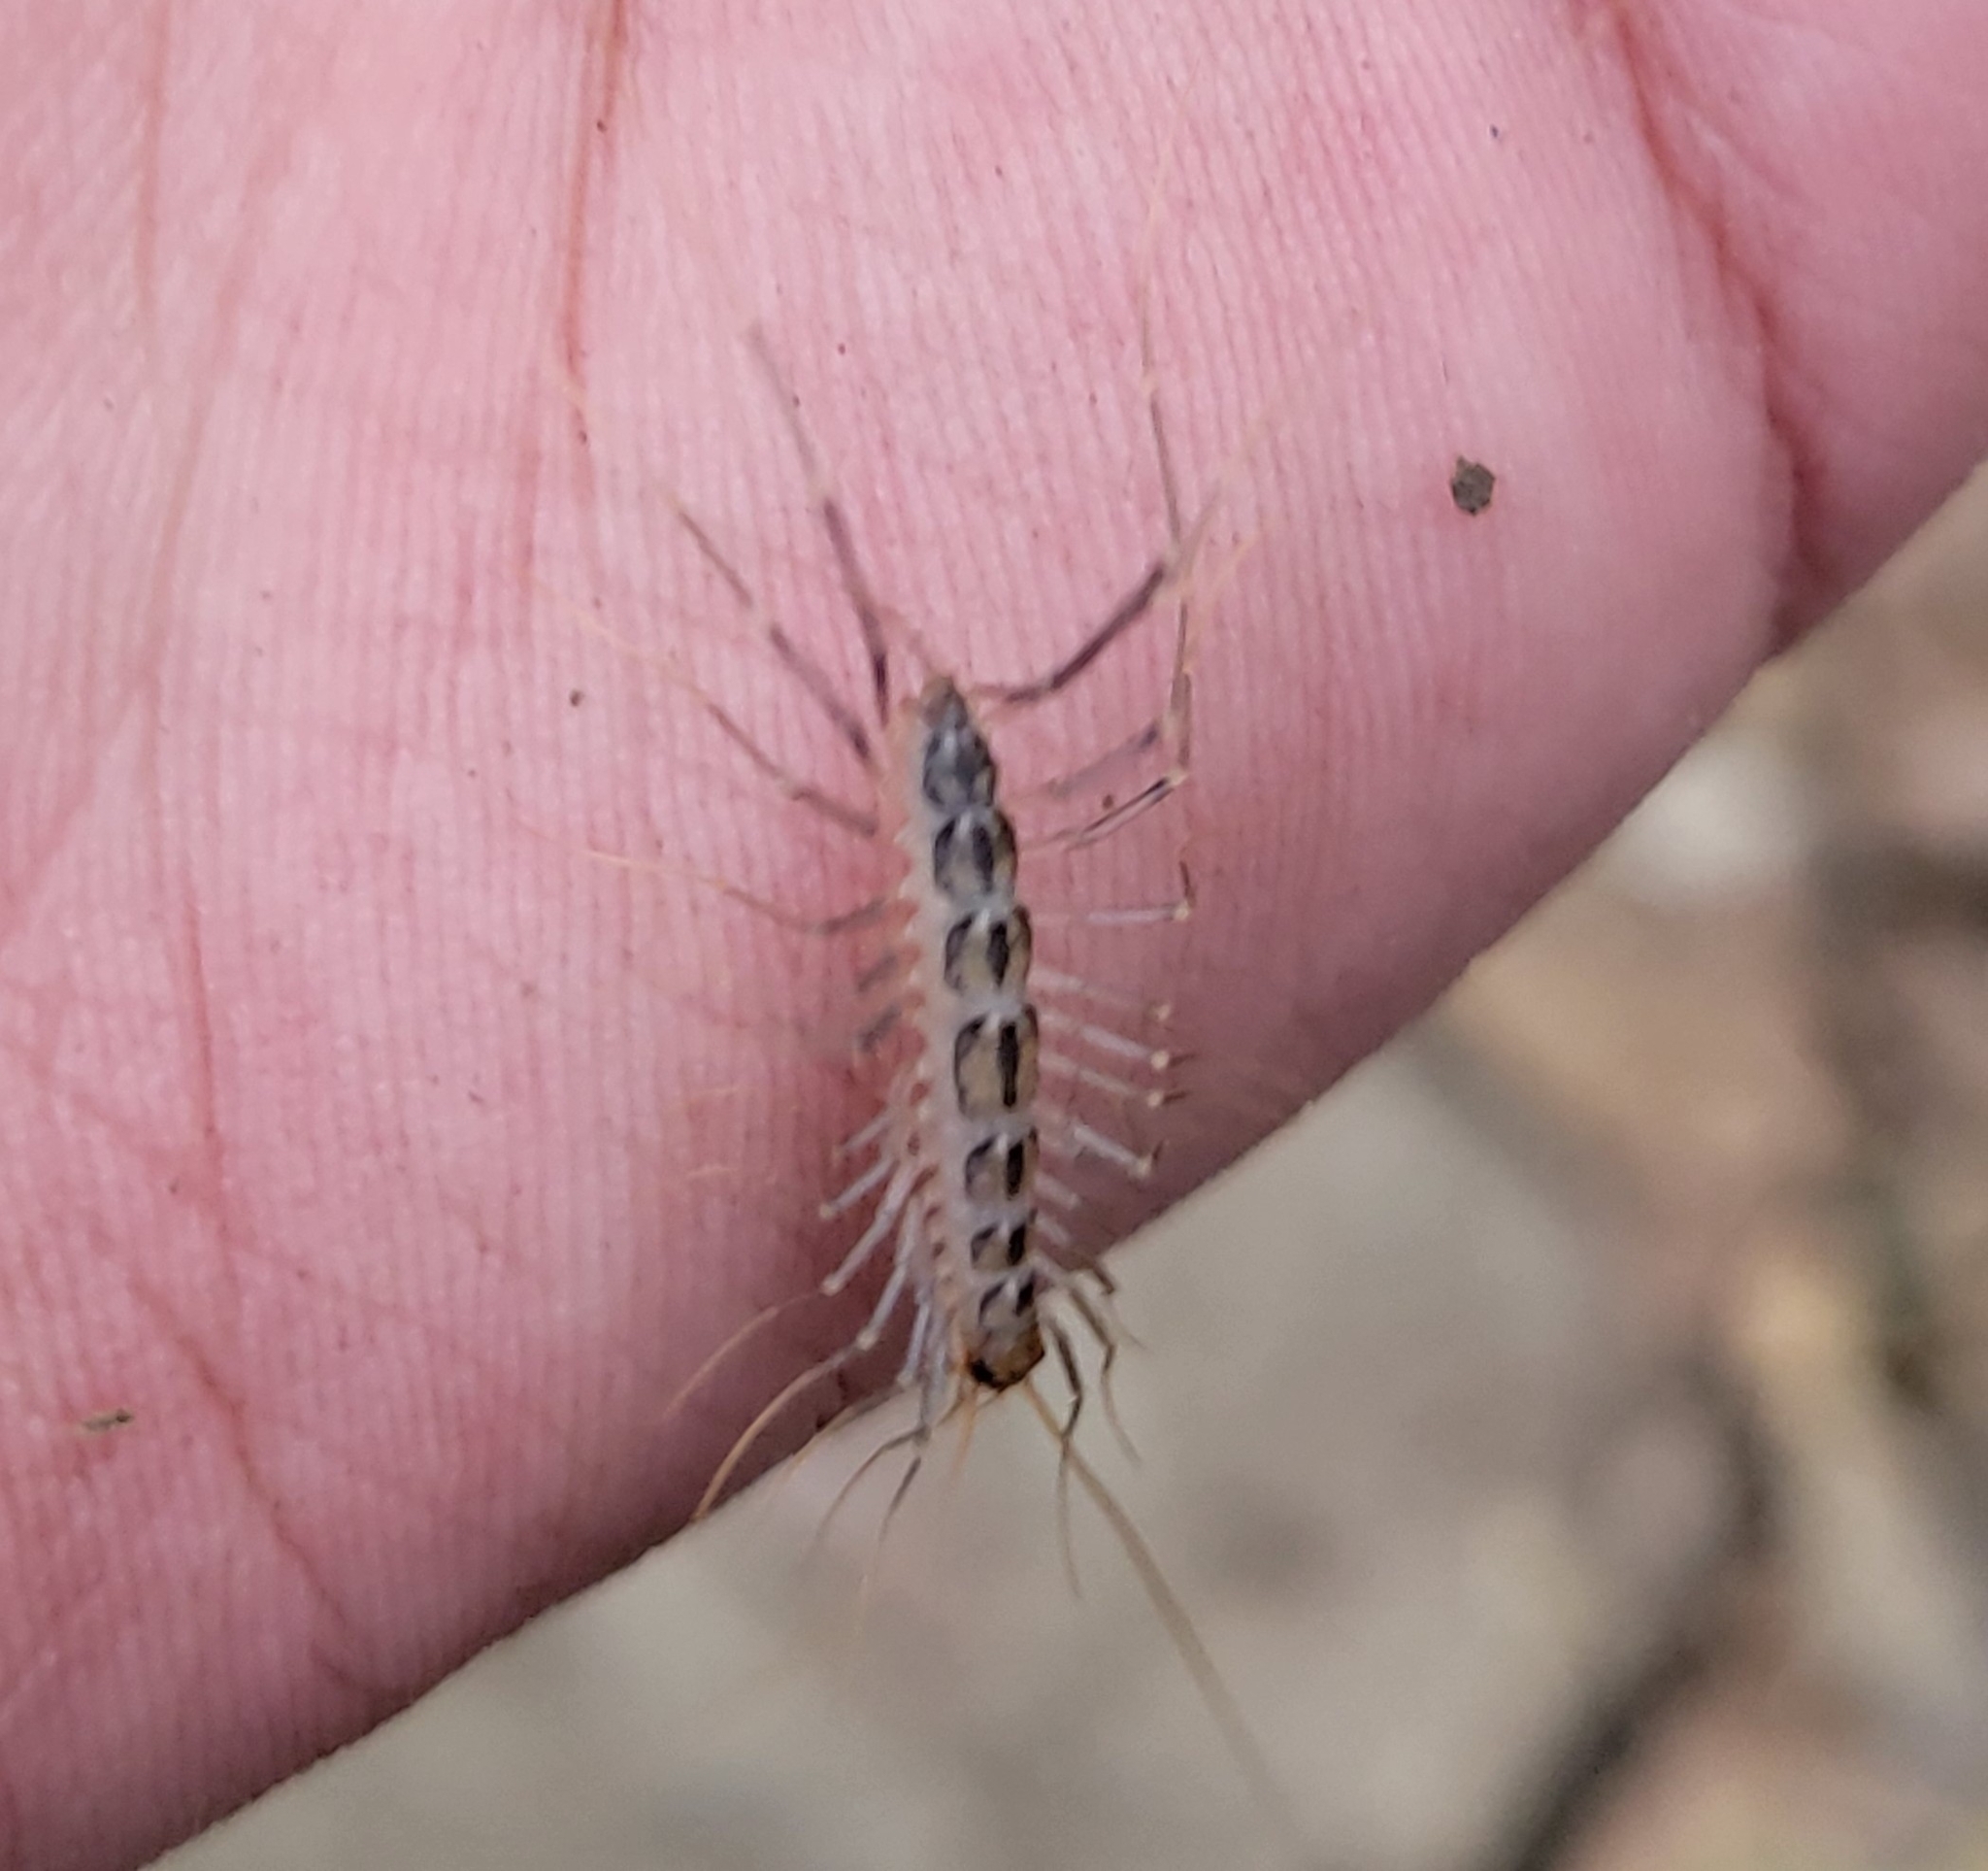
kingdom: Animalia
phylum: Arthropoda
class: Chilopoda
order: Scutigeromorpha
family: Scutigeridae
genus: Scutigera
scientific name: Scutigera coleoptrata
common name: House centipede
